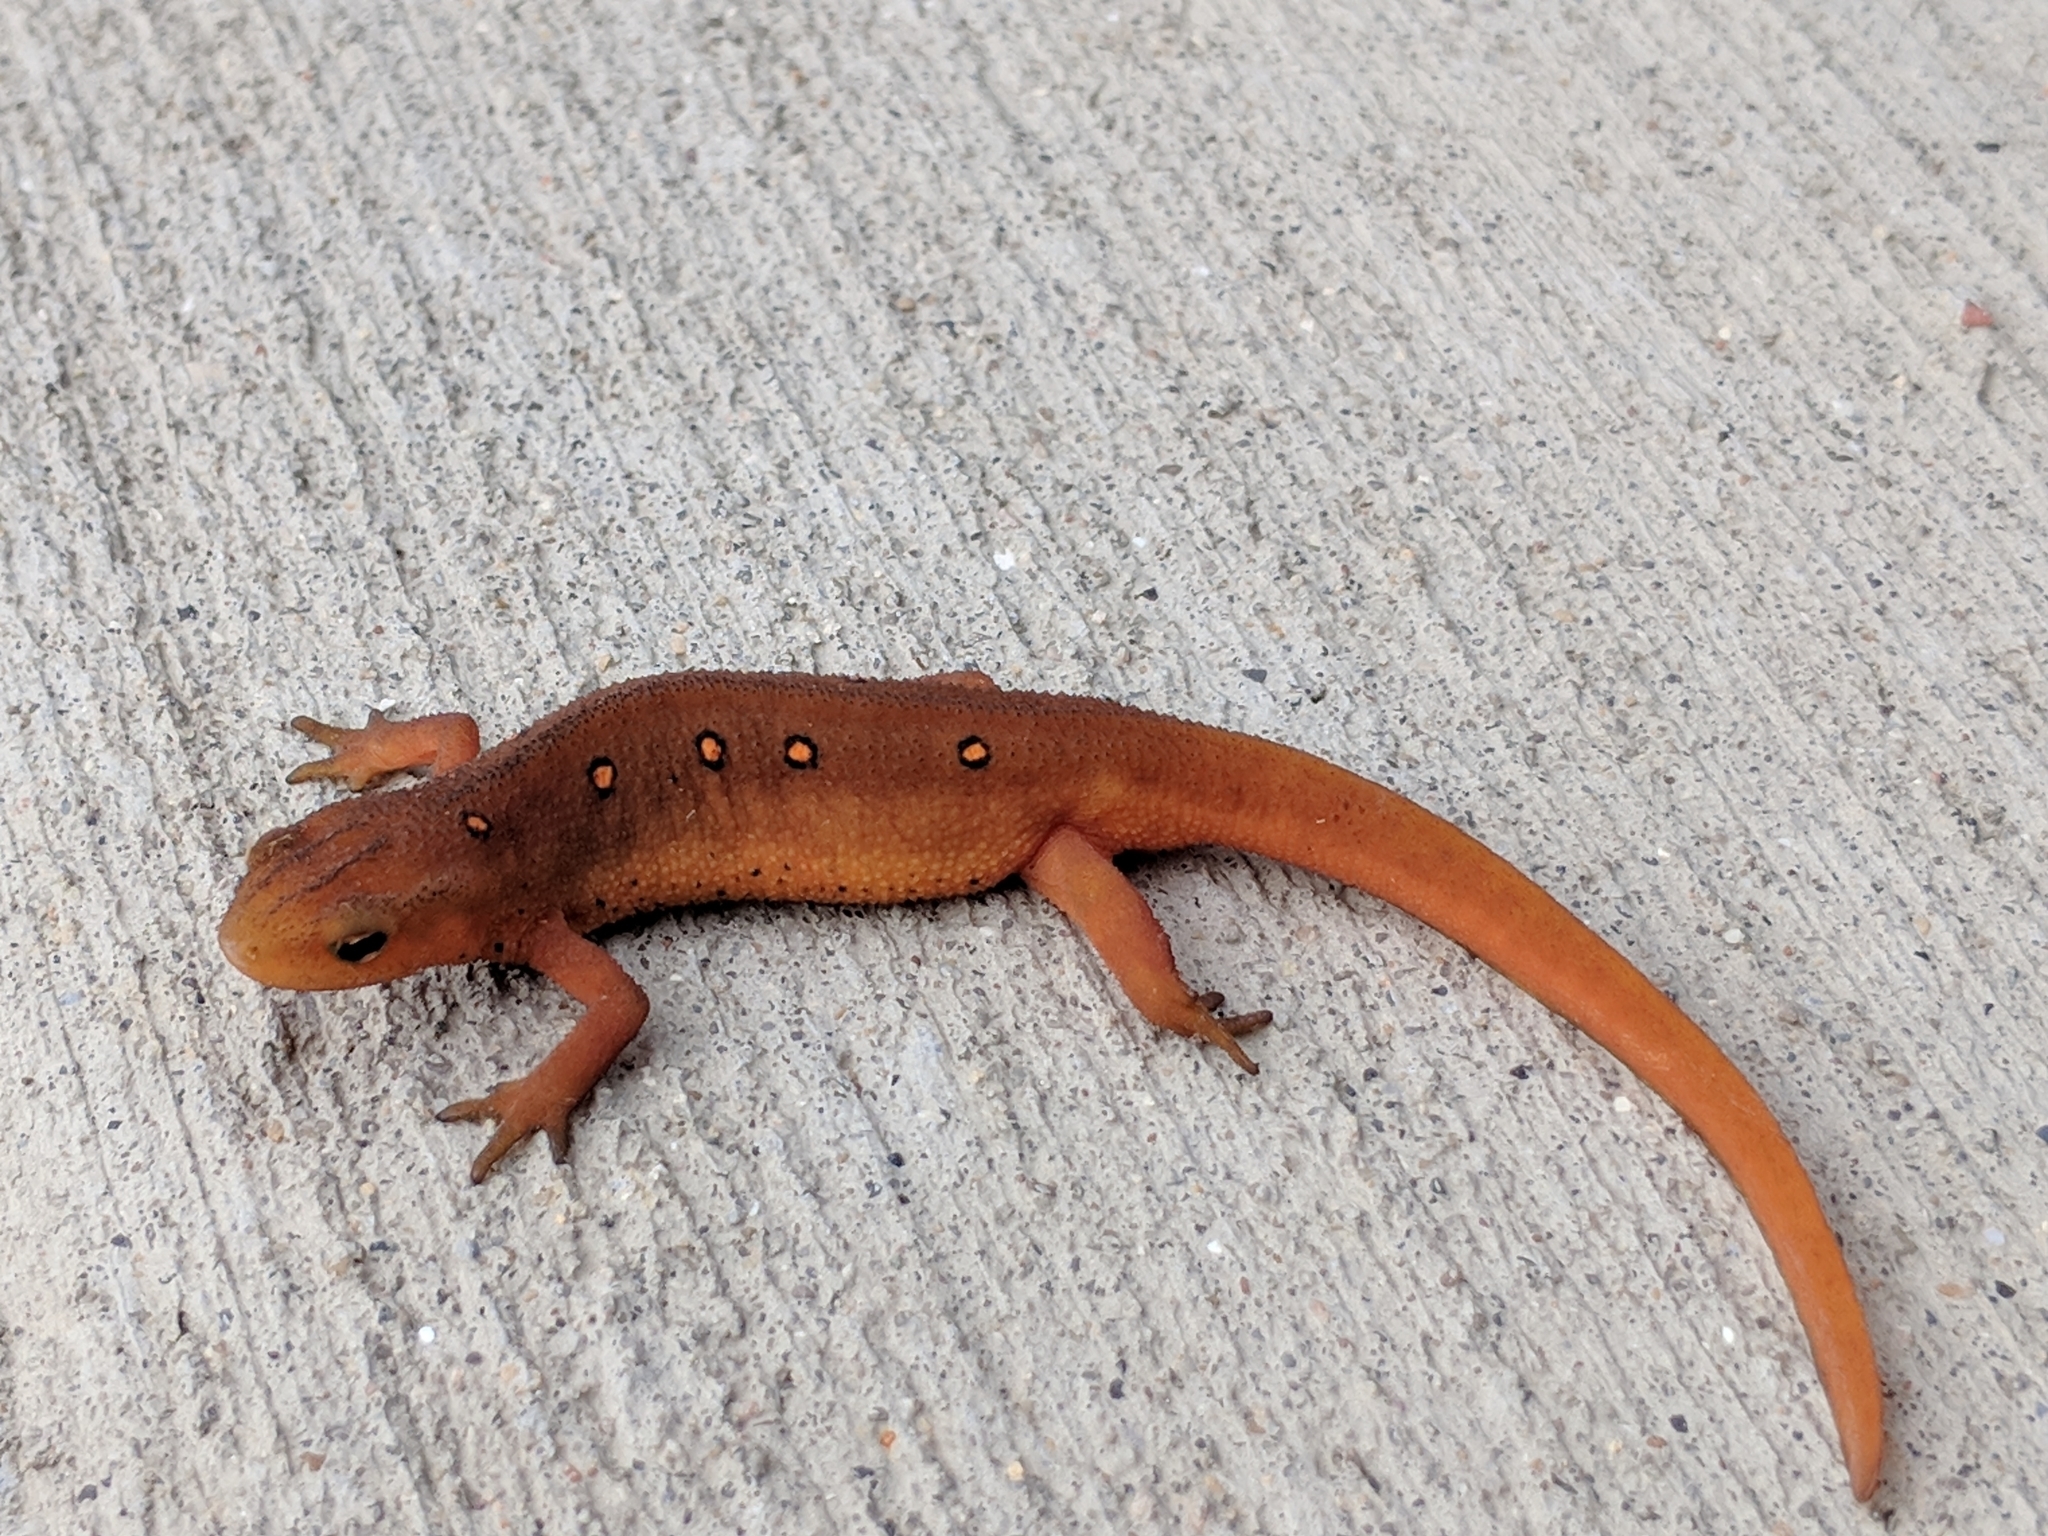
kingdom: Animalia
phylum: Chordata
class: Amphibia
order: Caudata
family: Salamandridae
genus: Notophthalmus
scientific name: Notophthalmus viridescens
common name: Eastern newt
